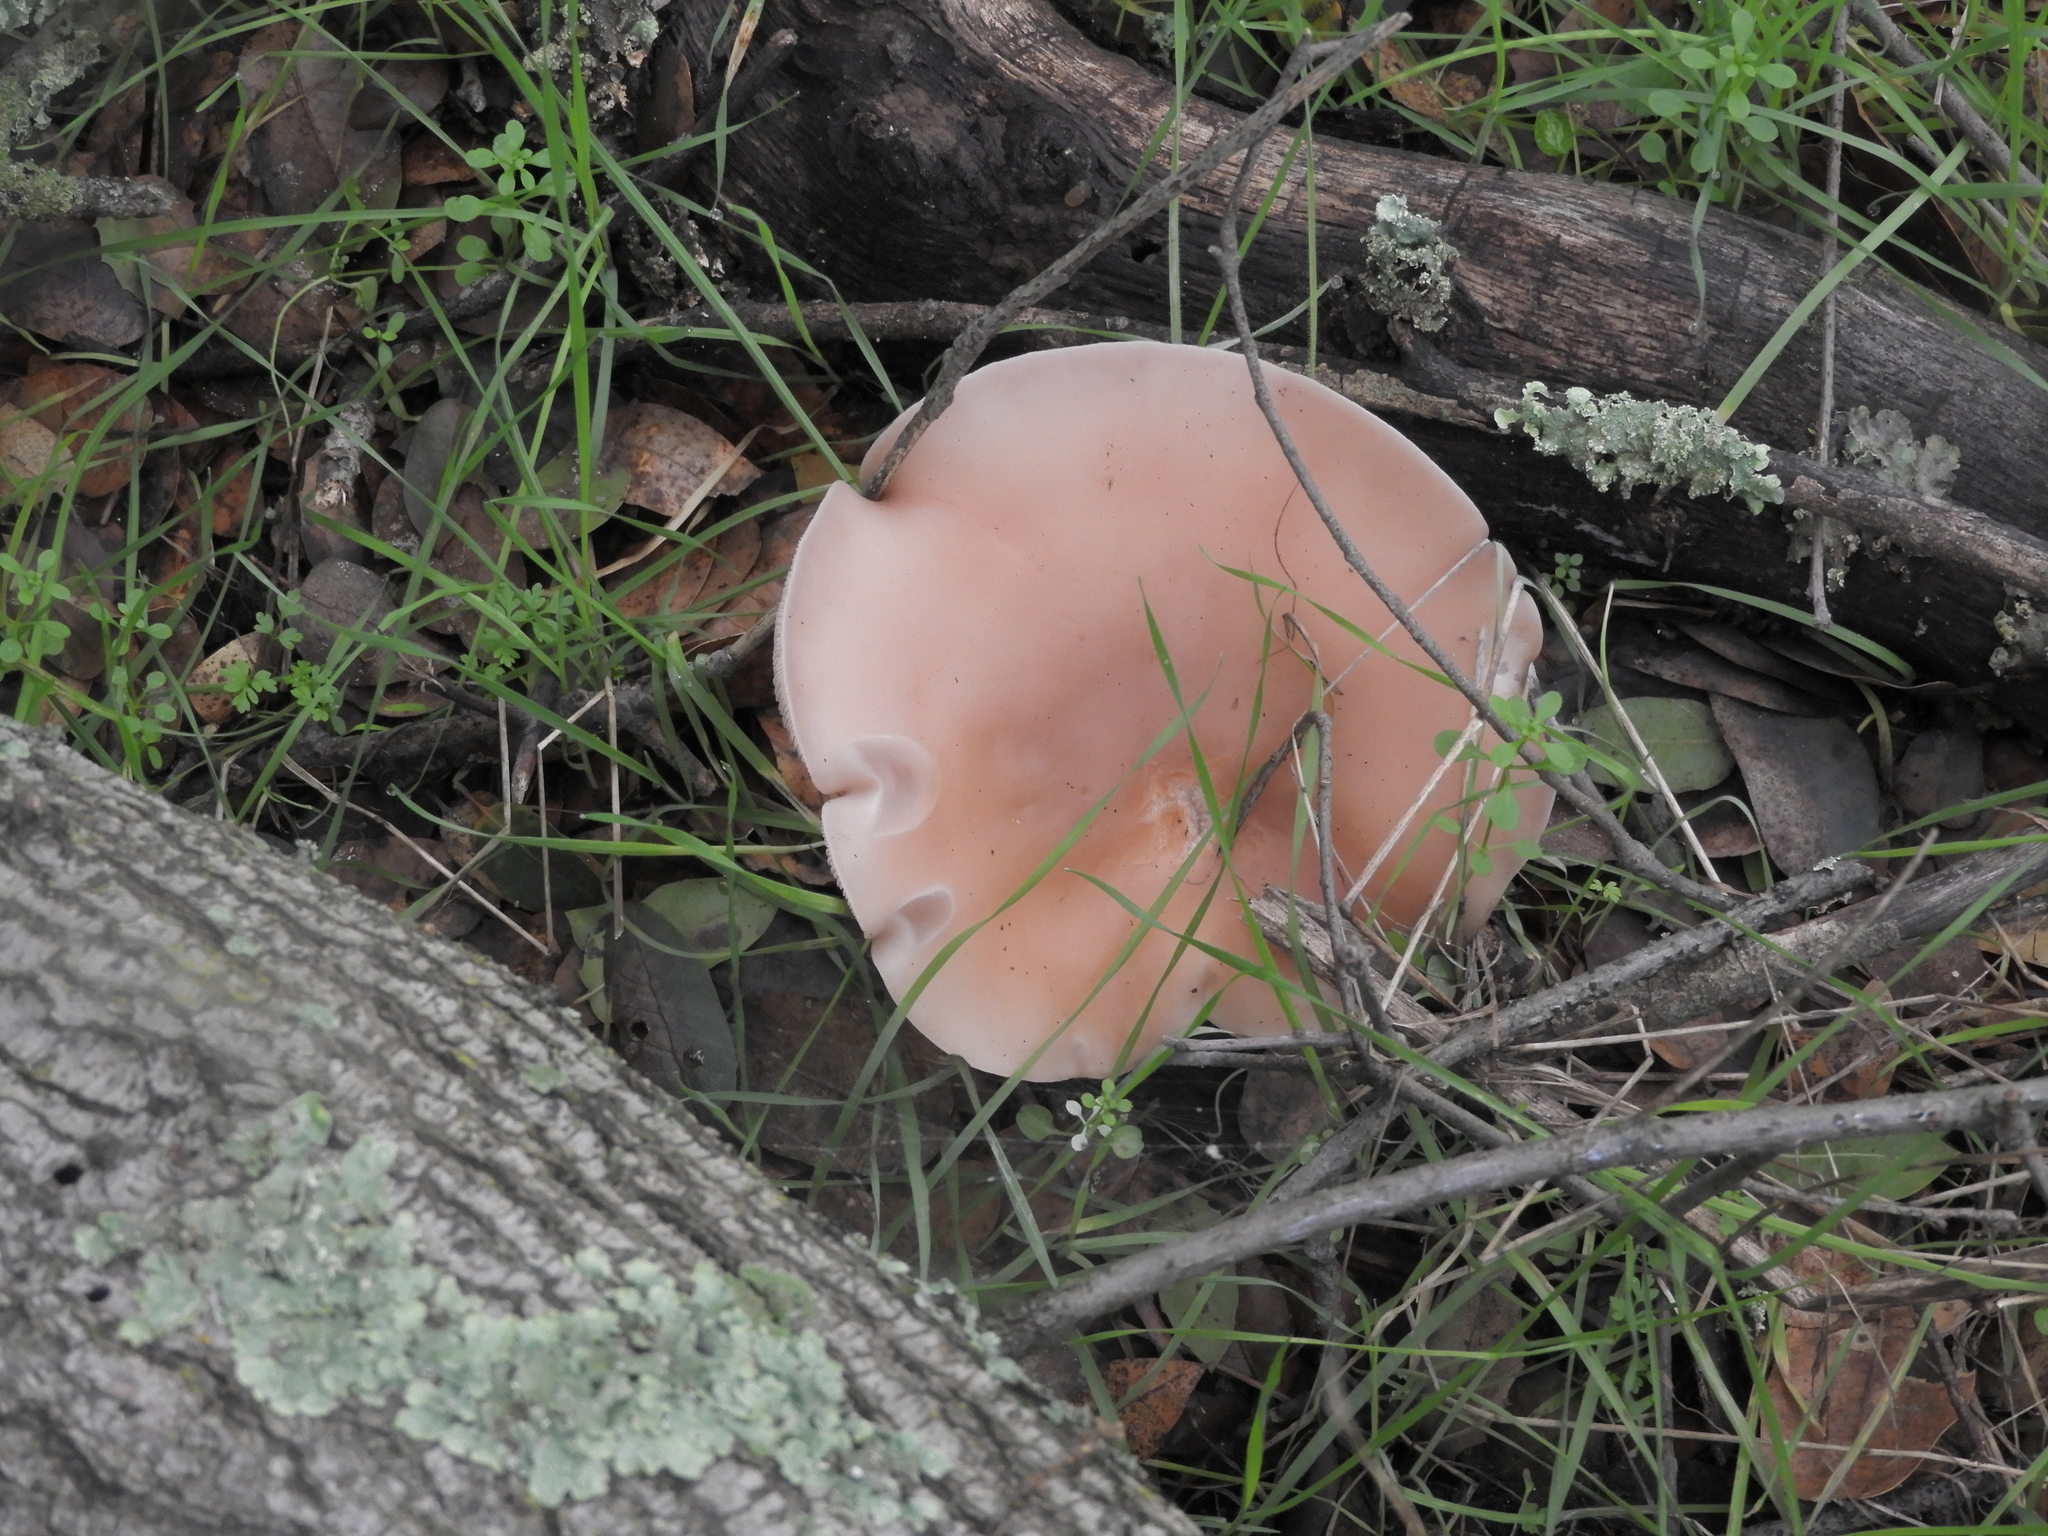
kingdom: Fungi
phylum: Basidiomycota
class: Agaricomycetes
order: Agaricales
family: Tricholomataceae
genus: Collybia
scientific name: Collybia
